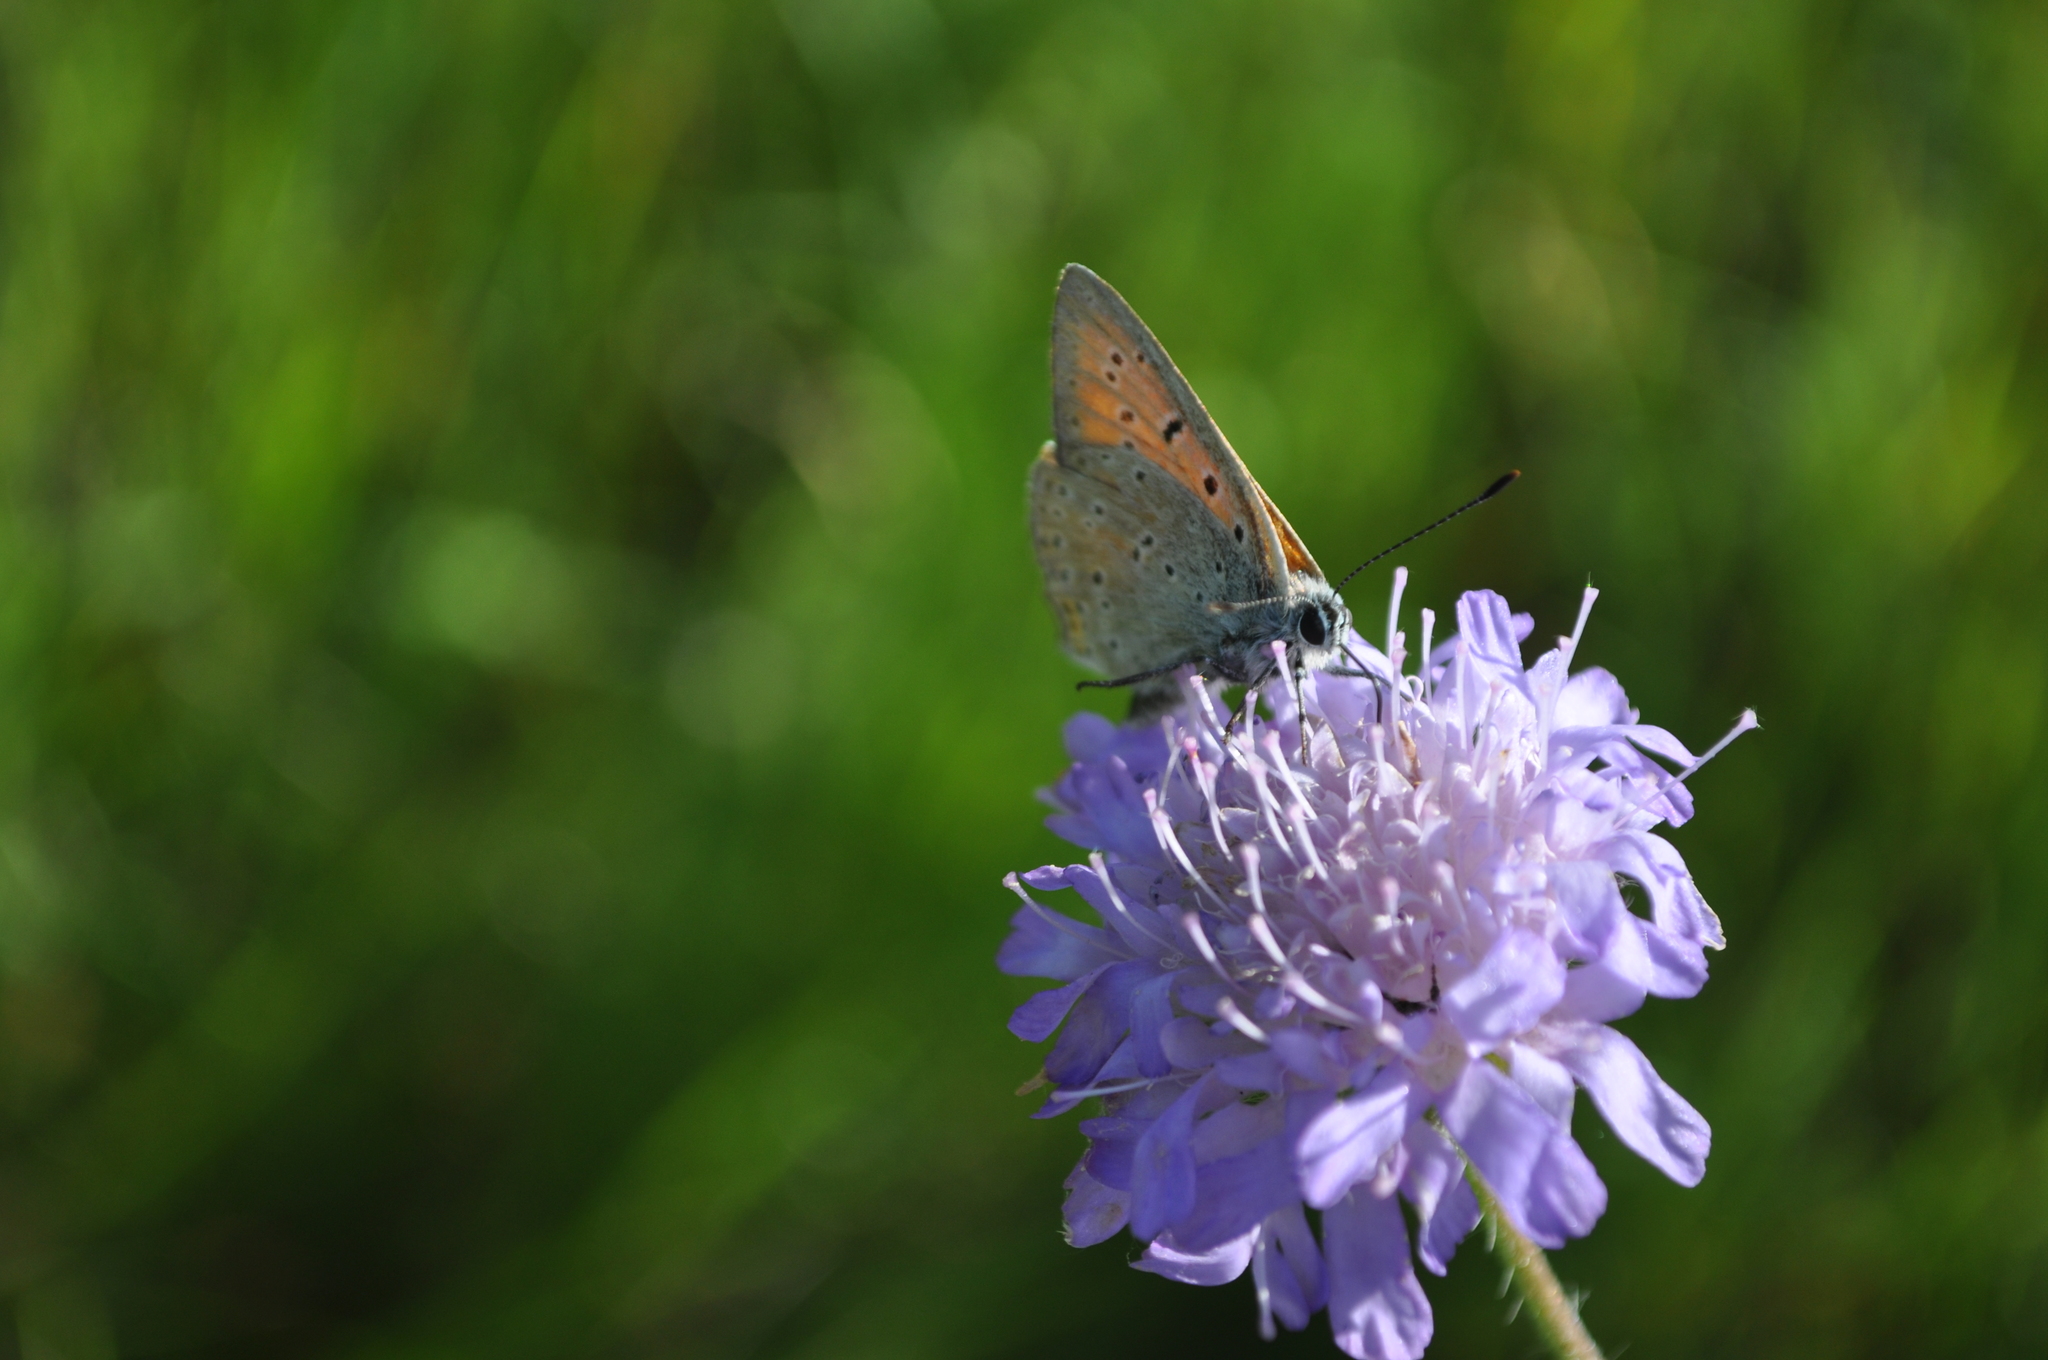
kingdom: Animalia
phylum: Arthropoda
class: Insecta
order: Lepidoptera
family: Lycaenidae
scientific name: Lycaenidae
